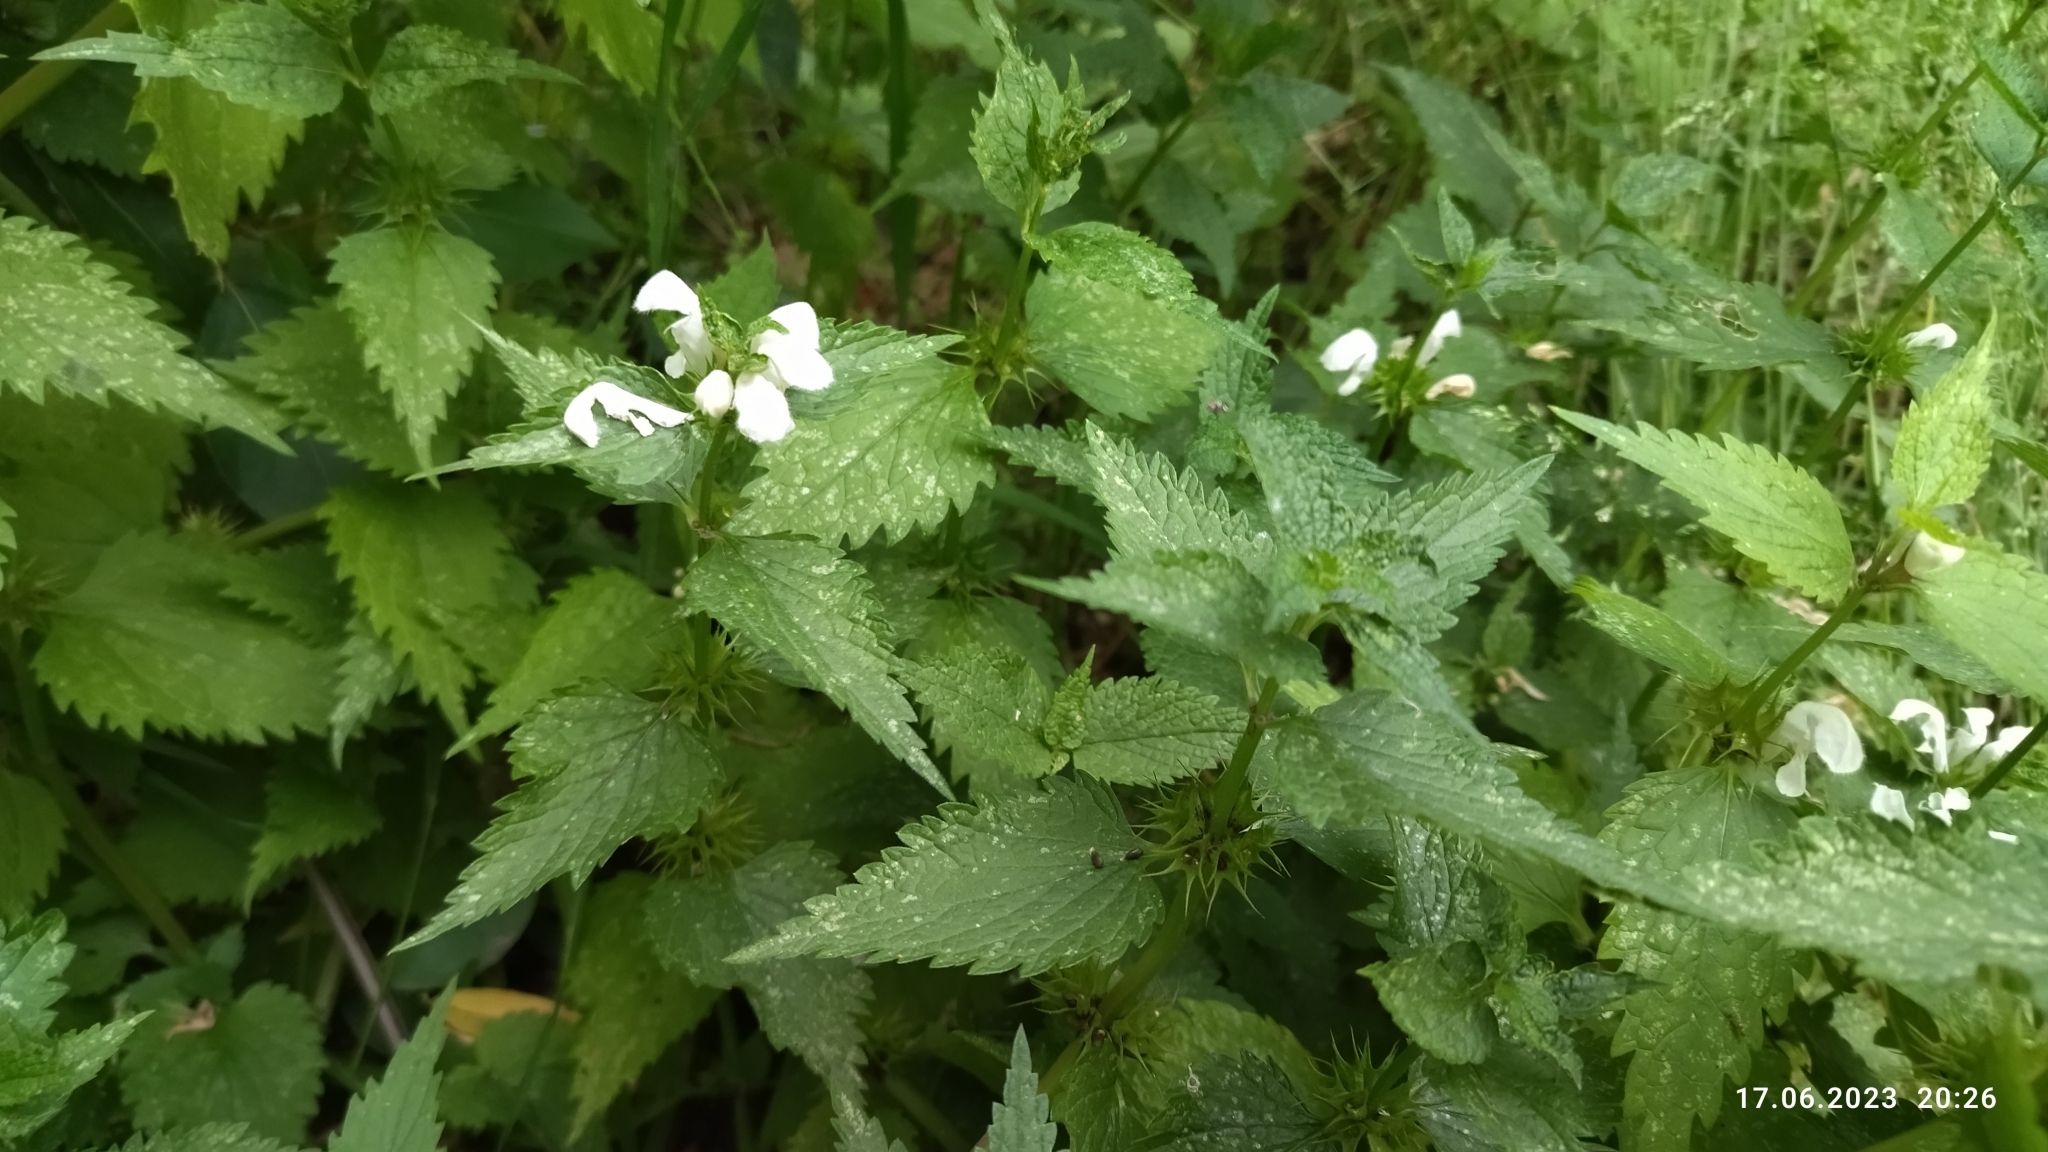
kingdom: Plantae
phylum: Tracheophyta
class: Magnoliopsida
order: Lamiales
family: Lamiaceae
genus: Lamium
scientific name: Lamium album
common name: White dead-nettle
